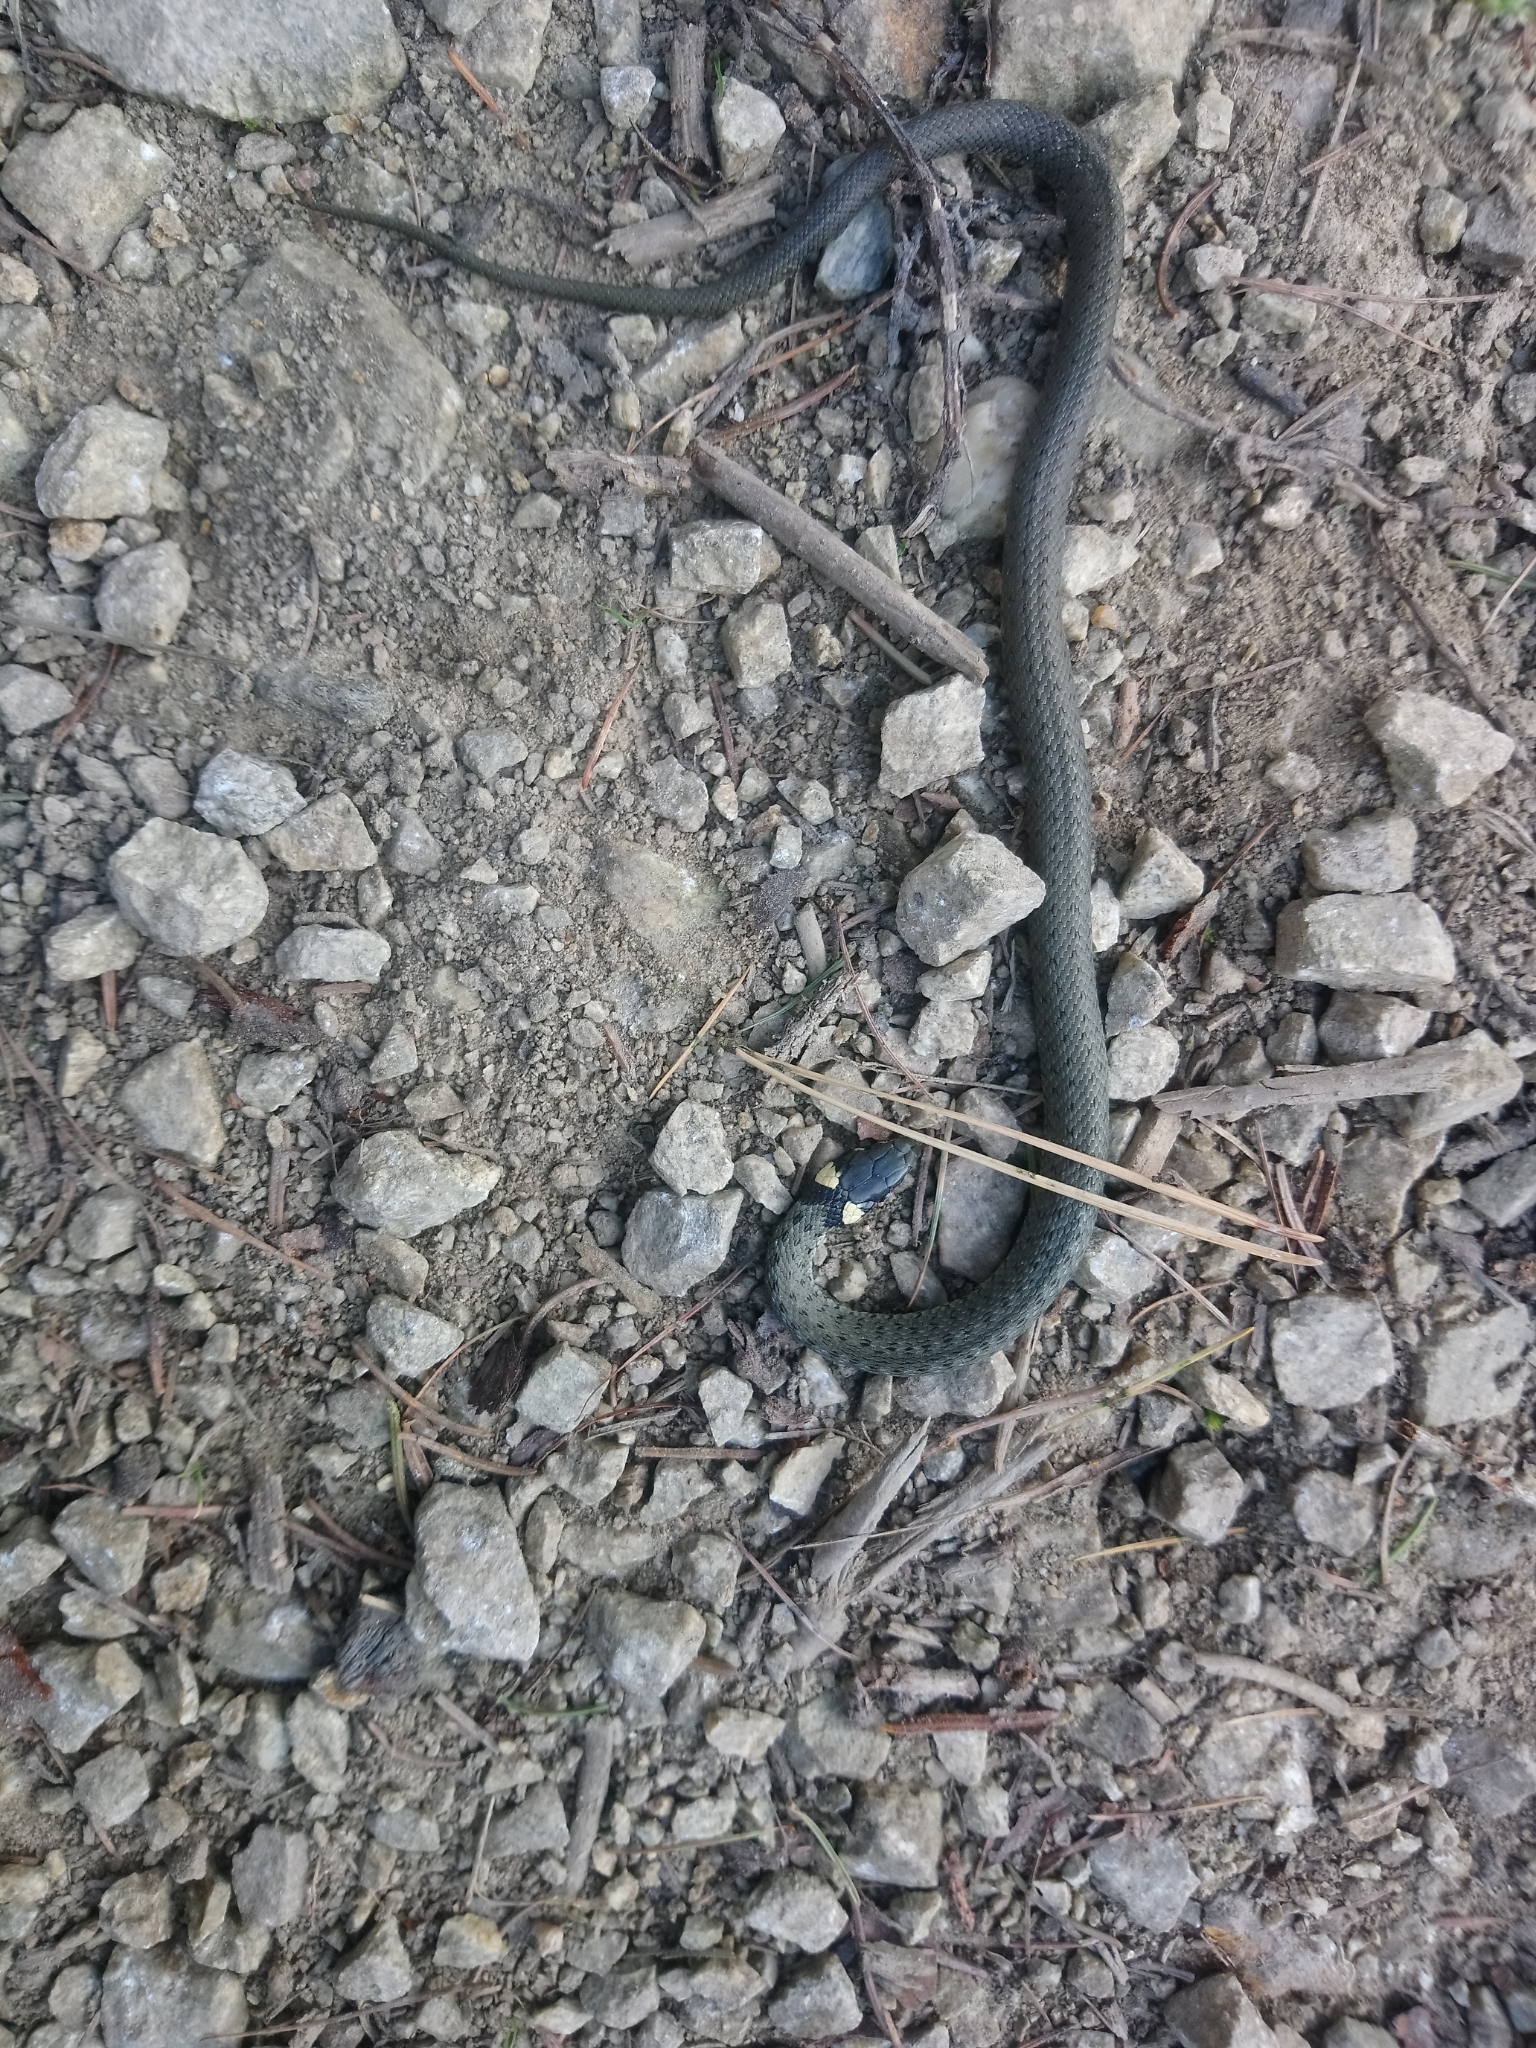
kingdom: Animalia
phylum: Chordata
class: Squamata
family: Colubridae
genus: Natrix
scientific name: Natrix natrix
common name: Grass snake
